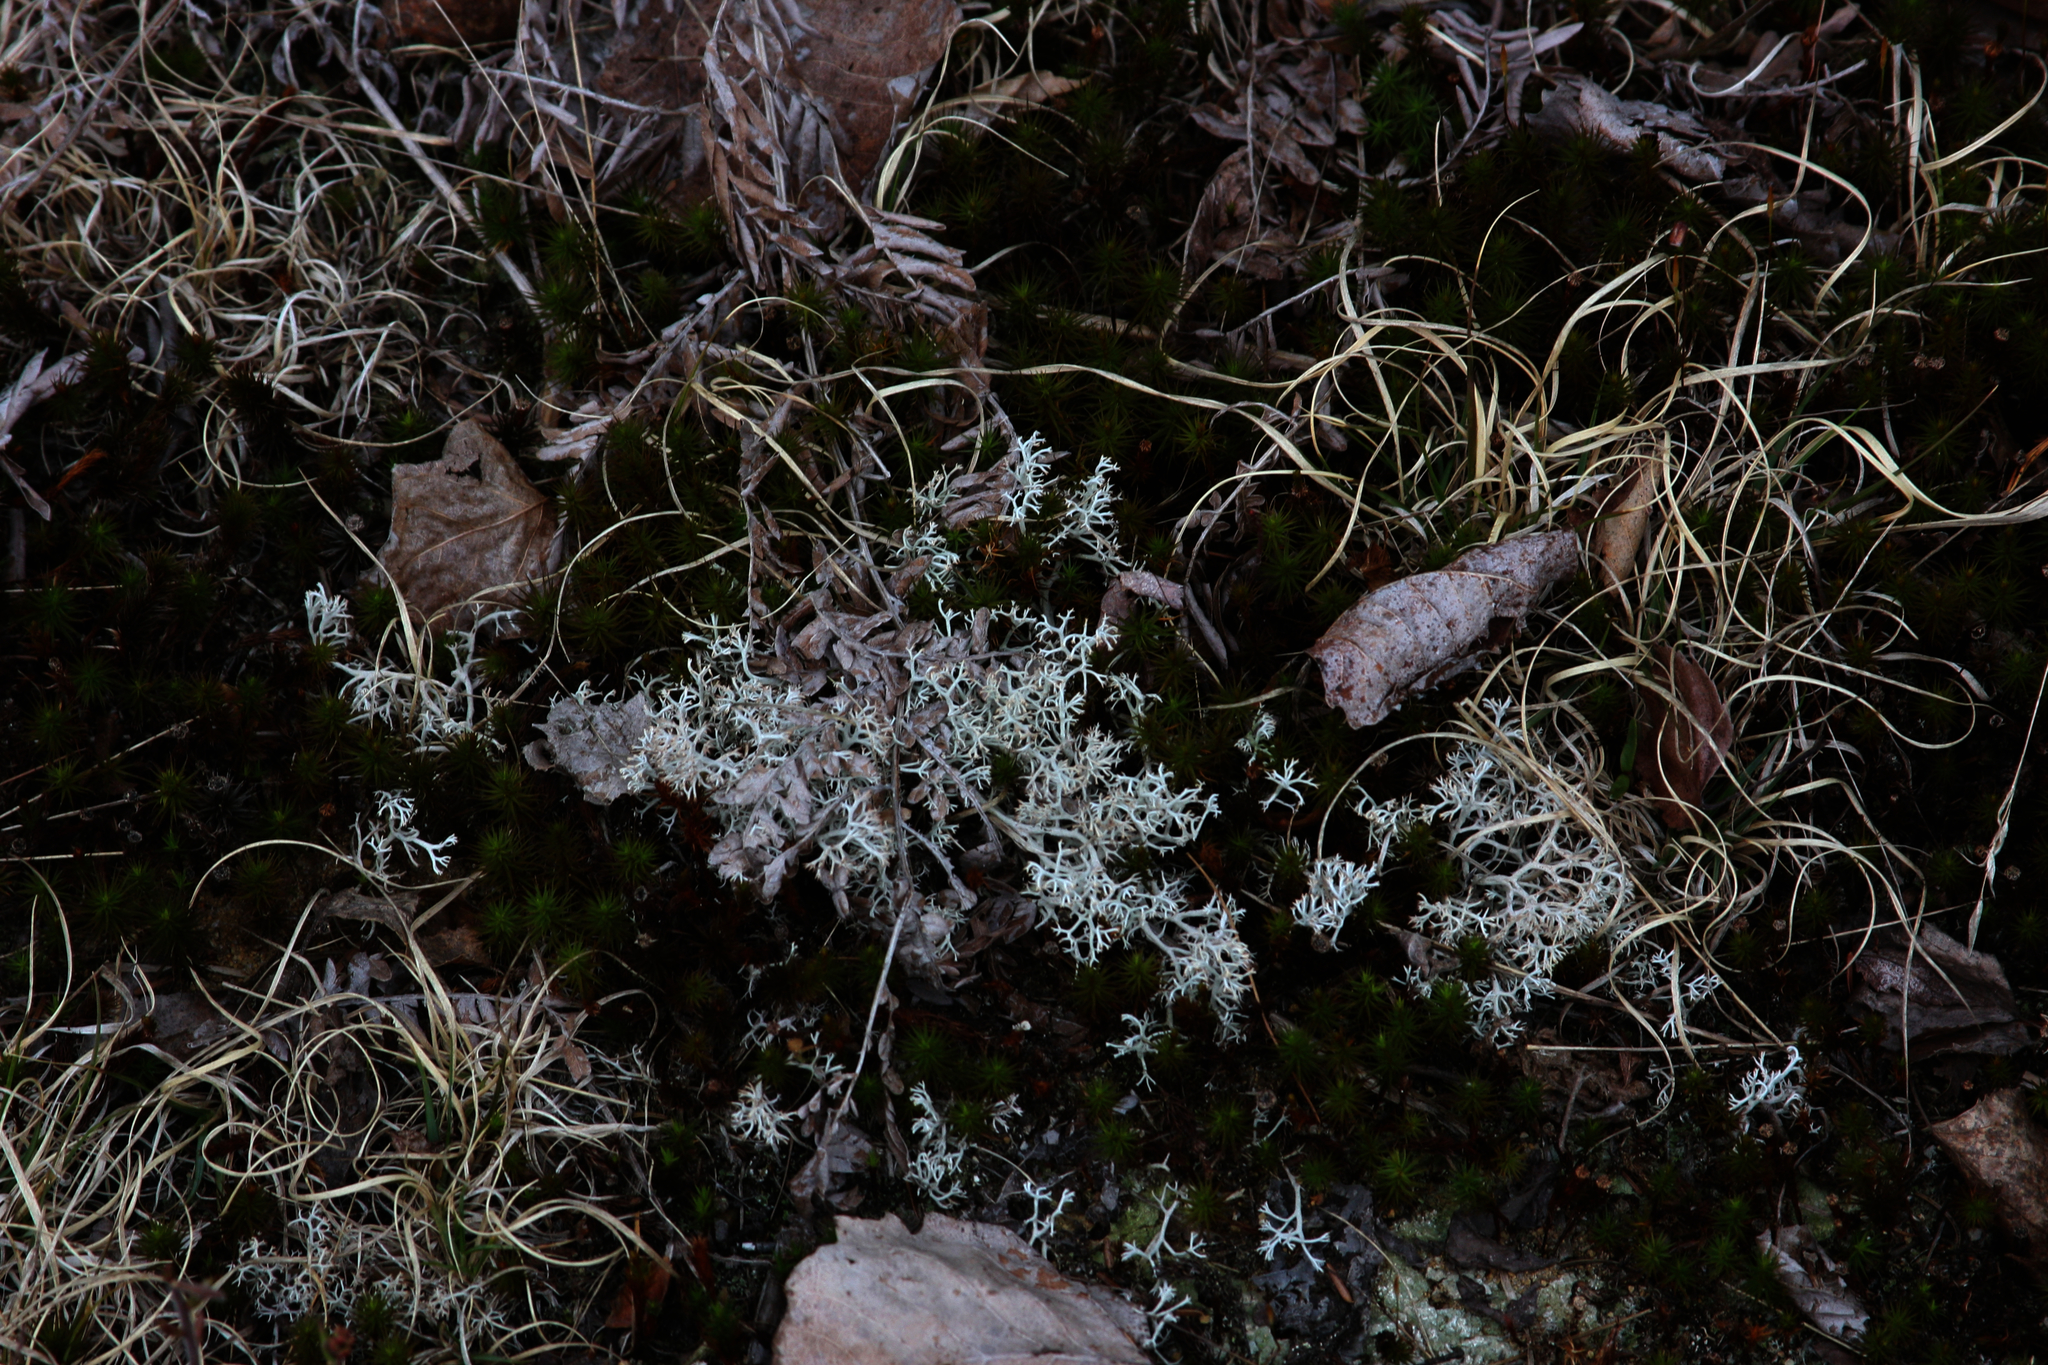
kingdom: Fungi
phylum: Ascomycota
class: Lecanoromycetes
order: Lecanorales
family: Cladoniaceae
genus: Cladonia
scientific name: Cladonia rangiferina
